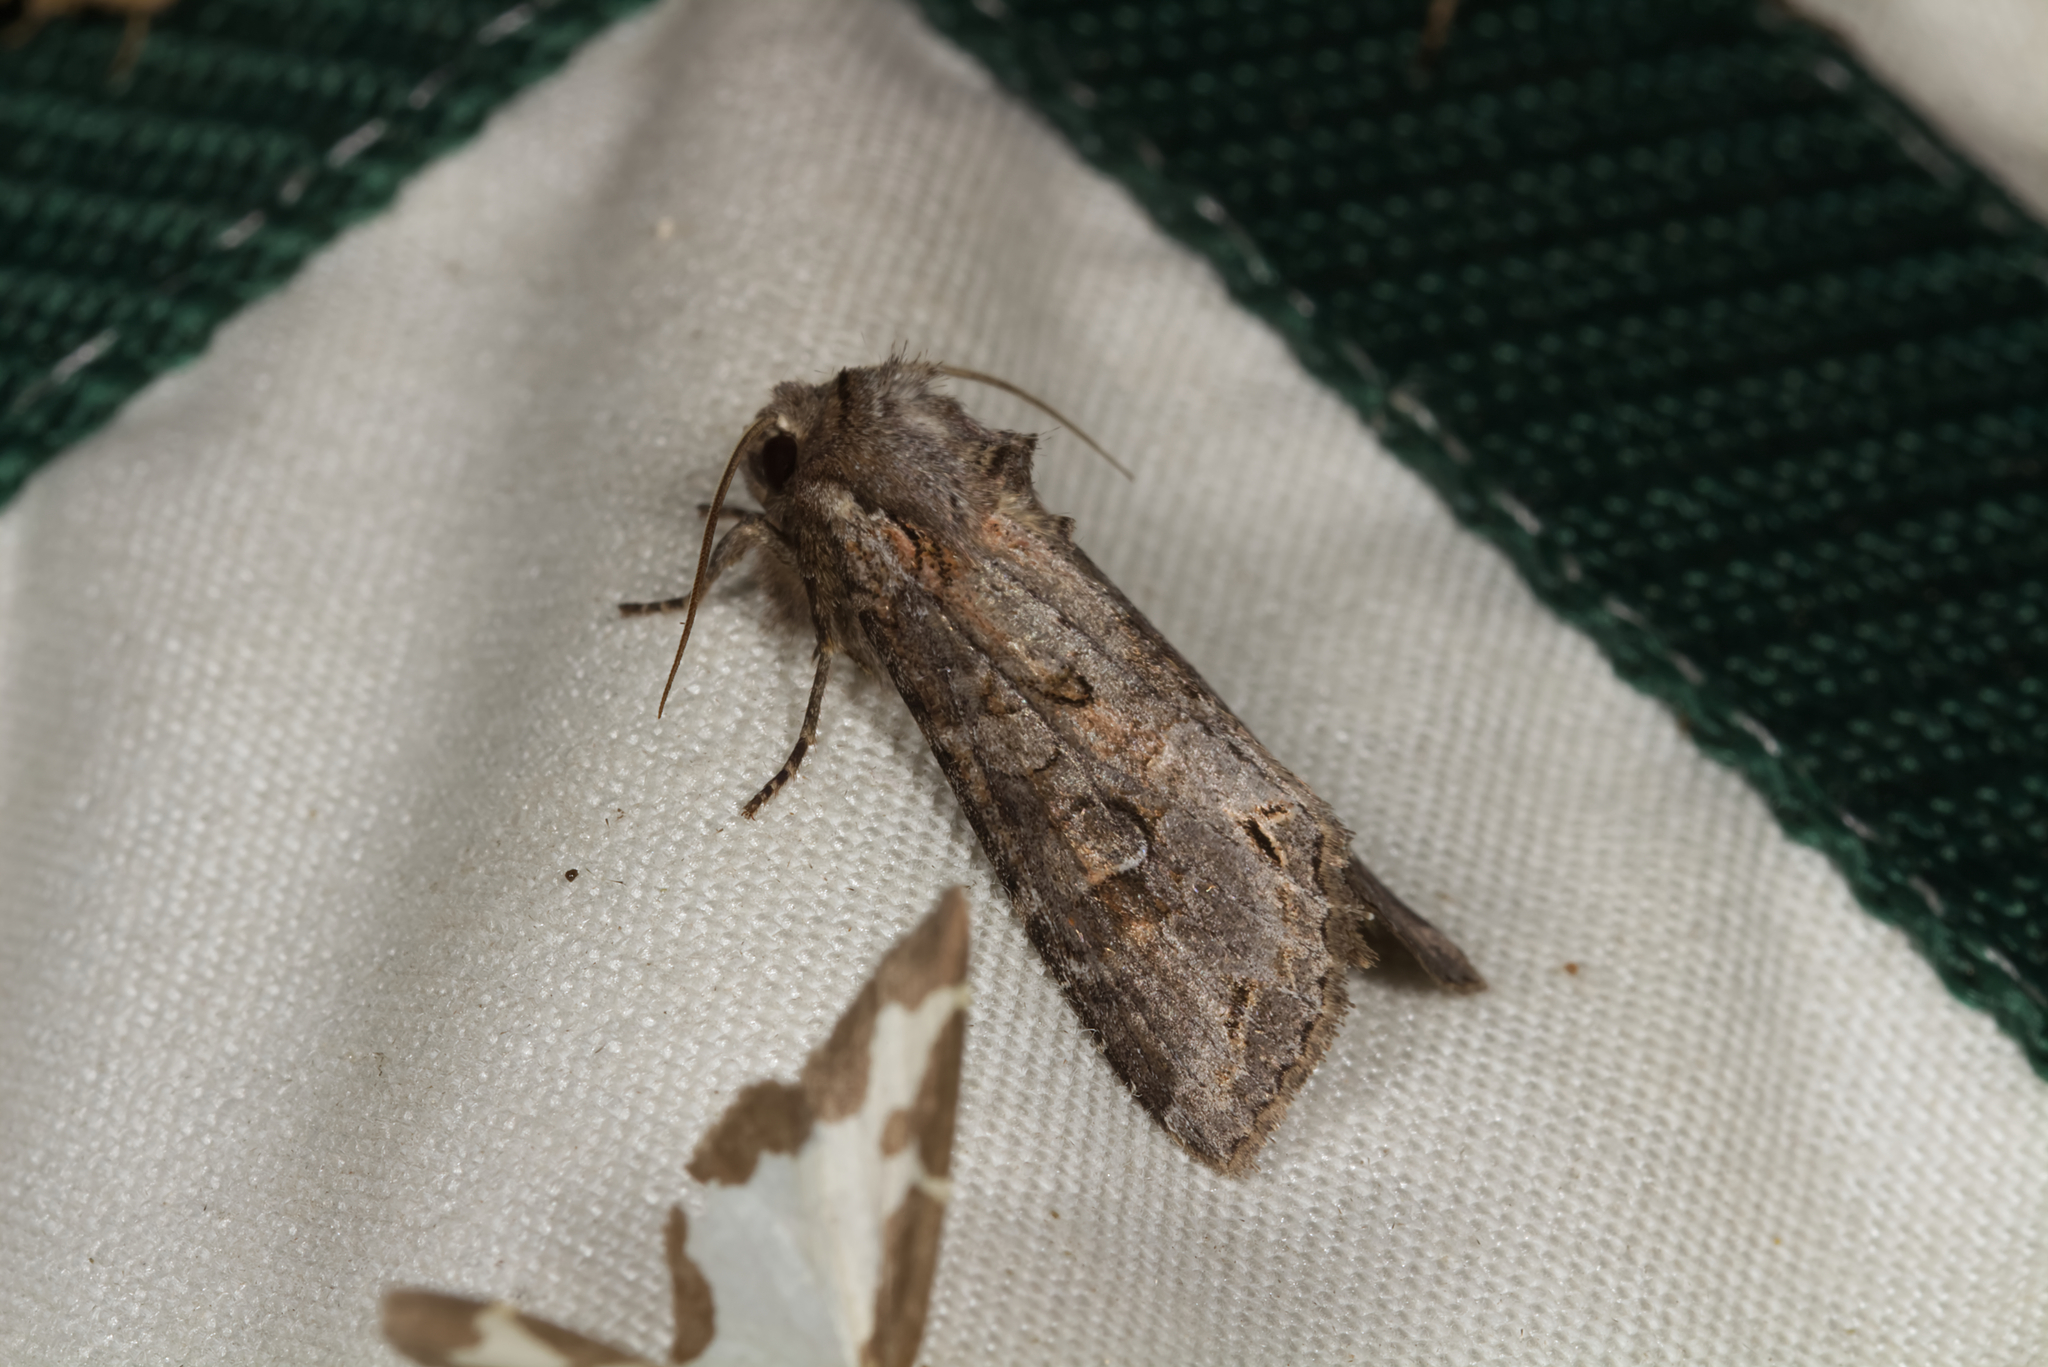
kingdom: Animalia
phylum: Arthropoda
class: Insecta
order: Lepidoptera
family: Noctuidae
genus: Polia
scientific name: Polia bombycina
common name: Pale shining brown
